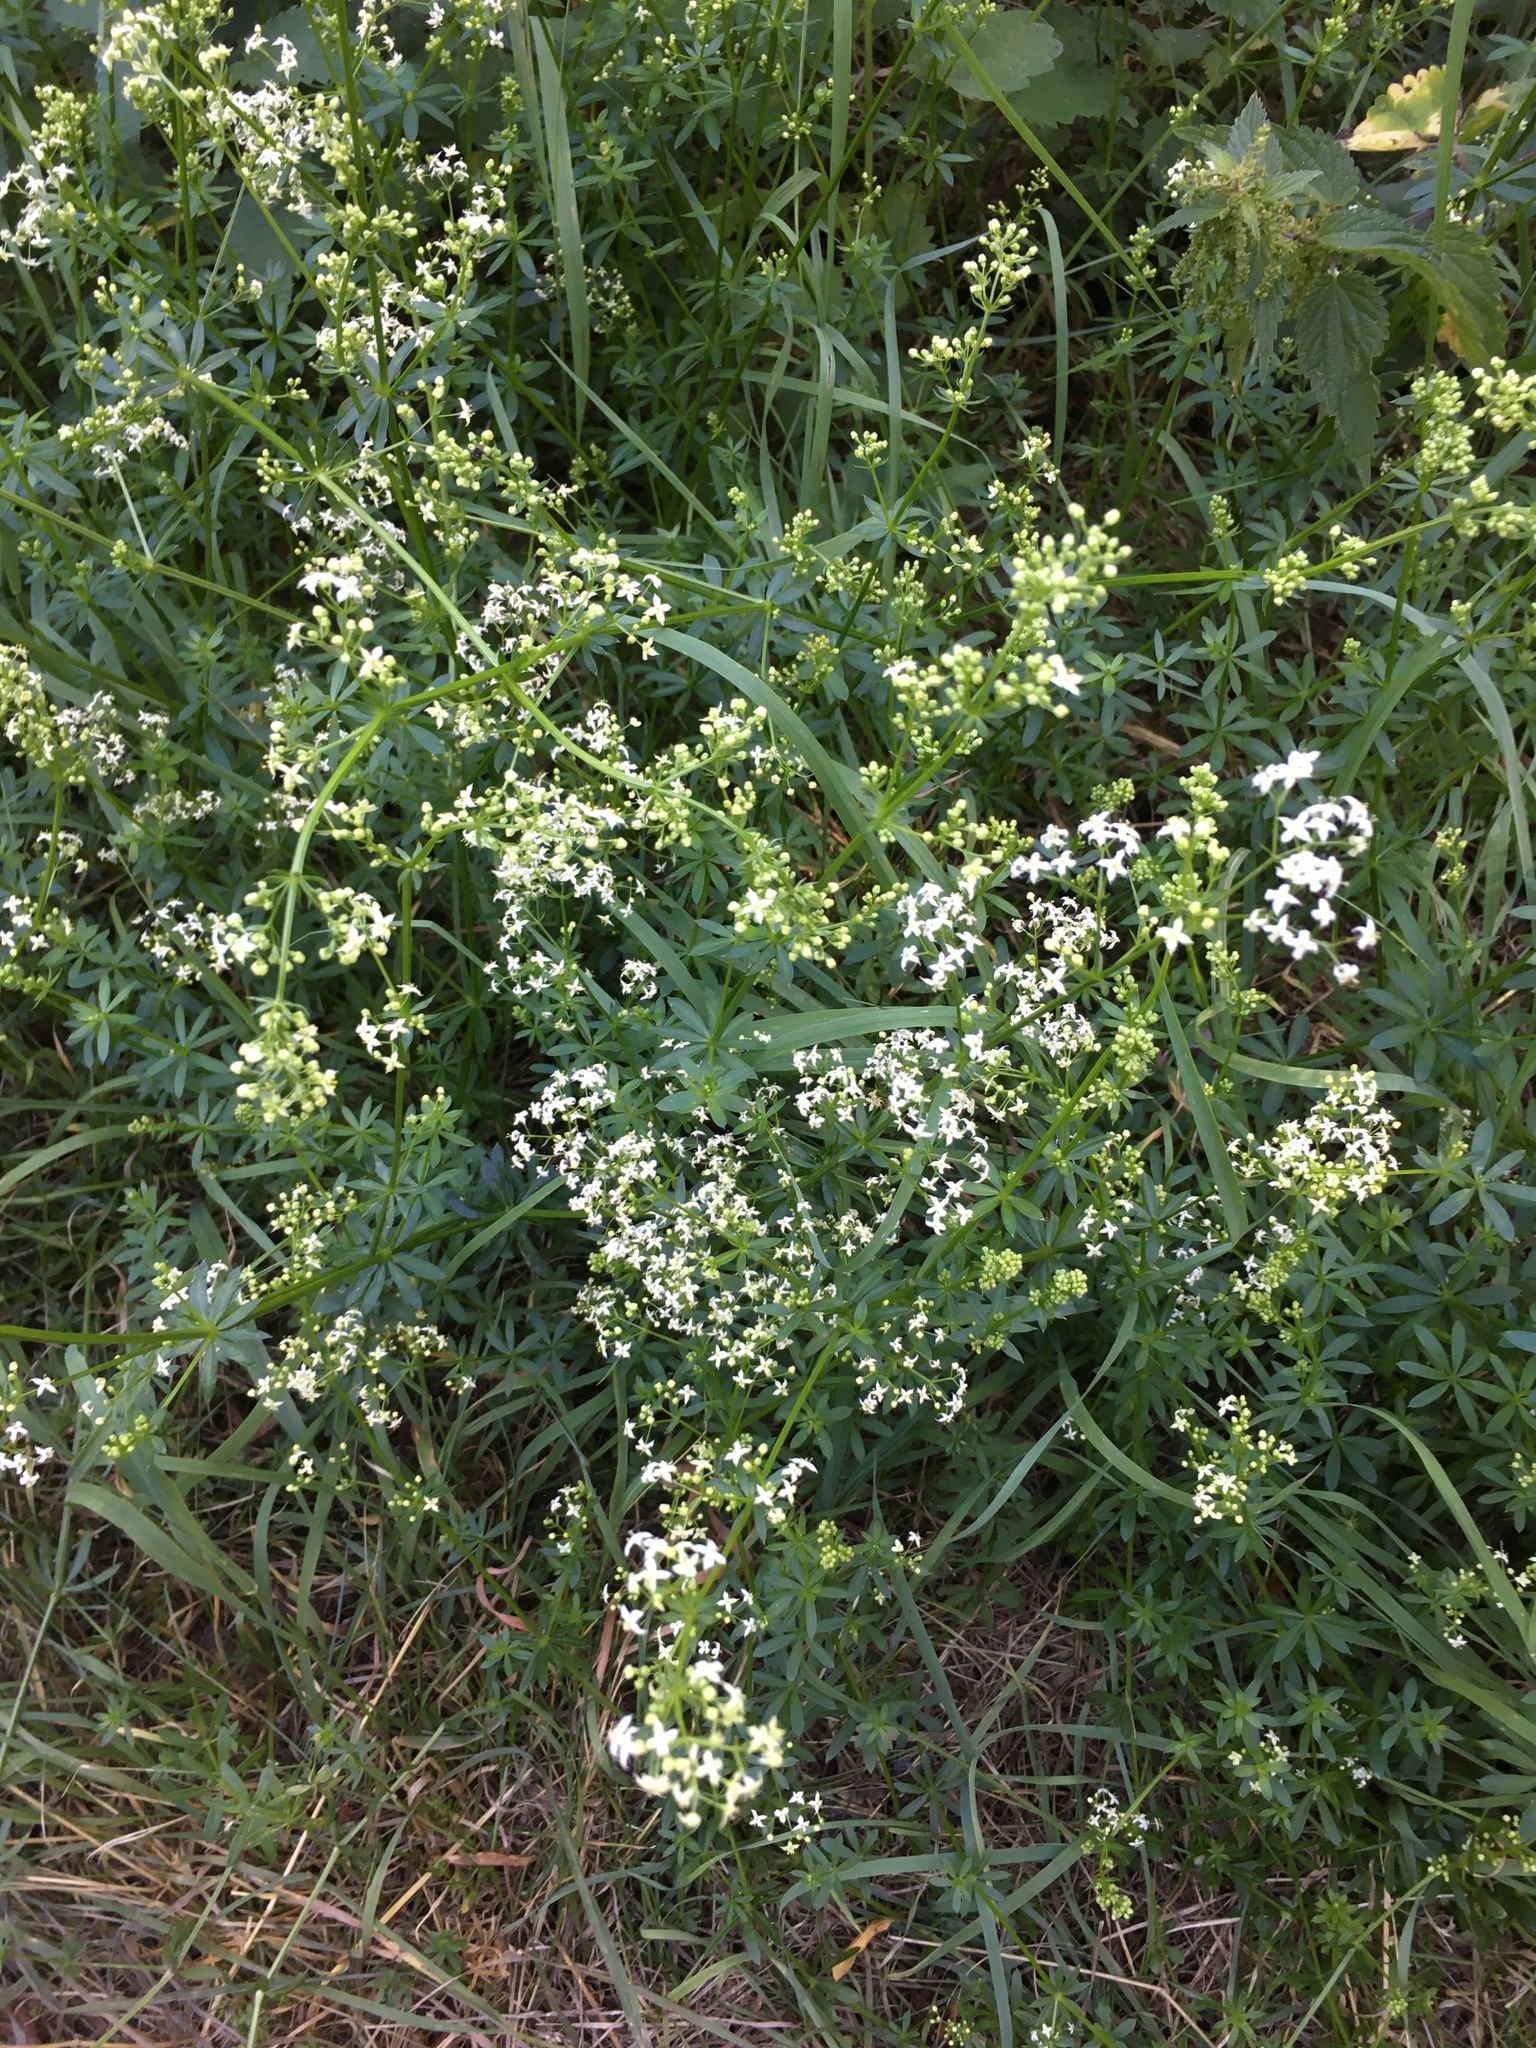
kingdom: Plantae
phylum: Tracheophyta
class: Magnoliopsida
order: Gentianales
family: Rubiaceae
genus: Galium
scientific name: Galium mollugo
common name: Hedge bedstraw
